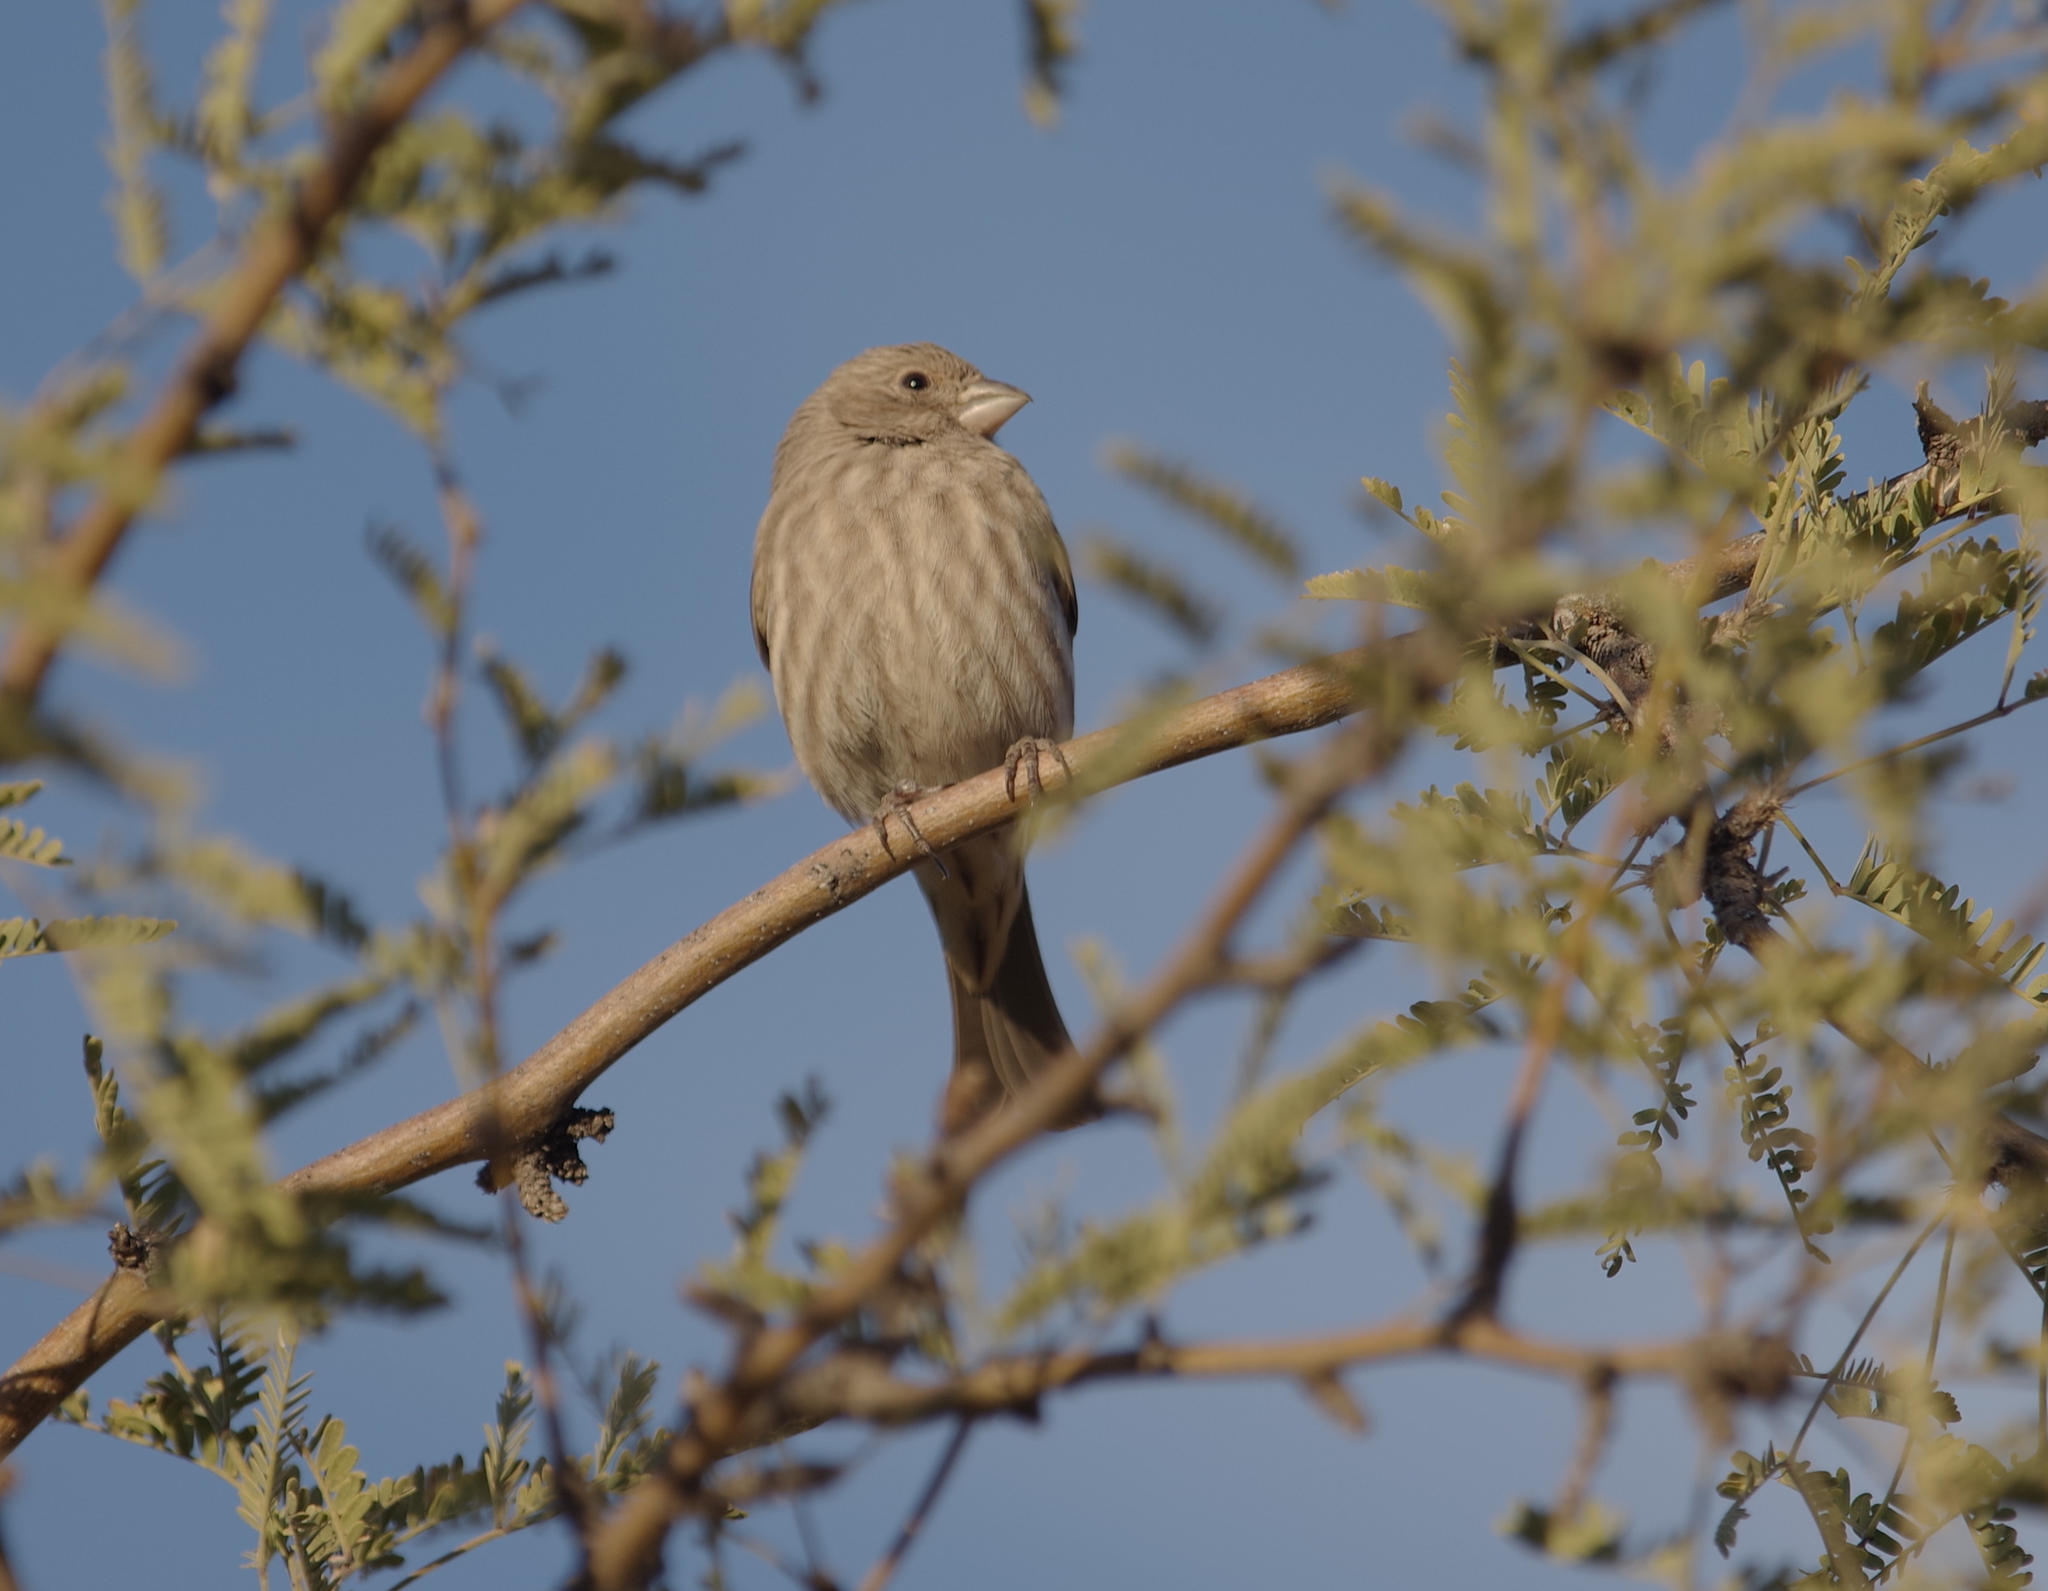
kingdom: Animalia
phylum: Chordata
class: Aves
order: Passeriformes
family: Fringillidae
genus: Haemorhous
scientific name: Haemorhous mexicanus
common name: House finch
